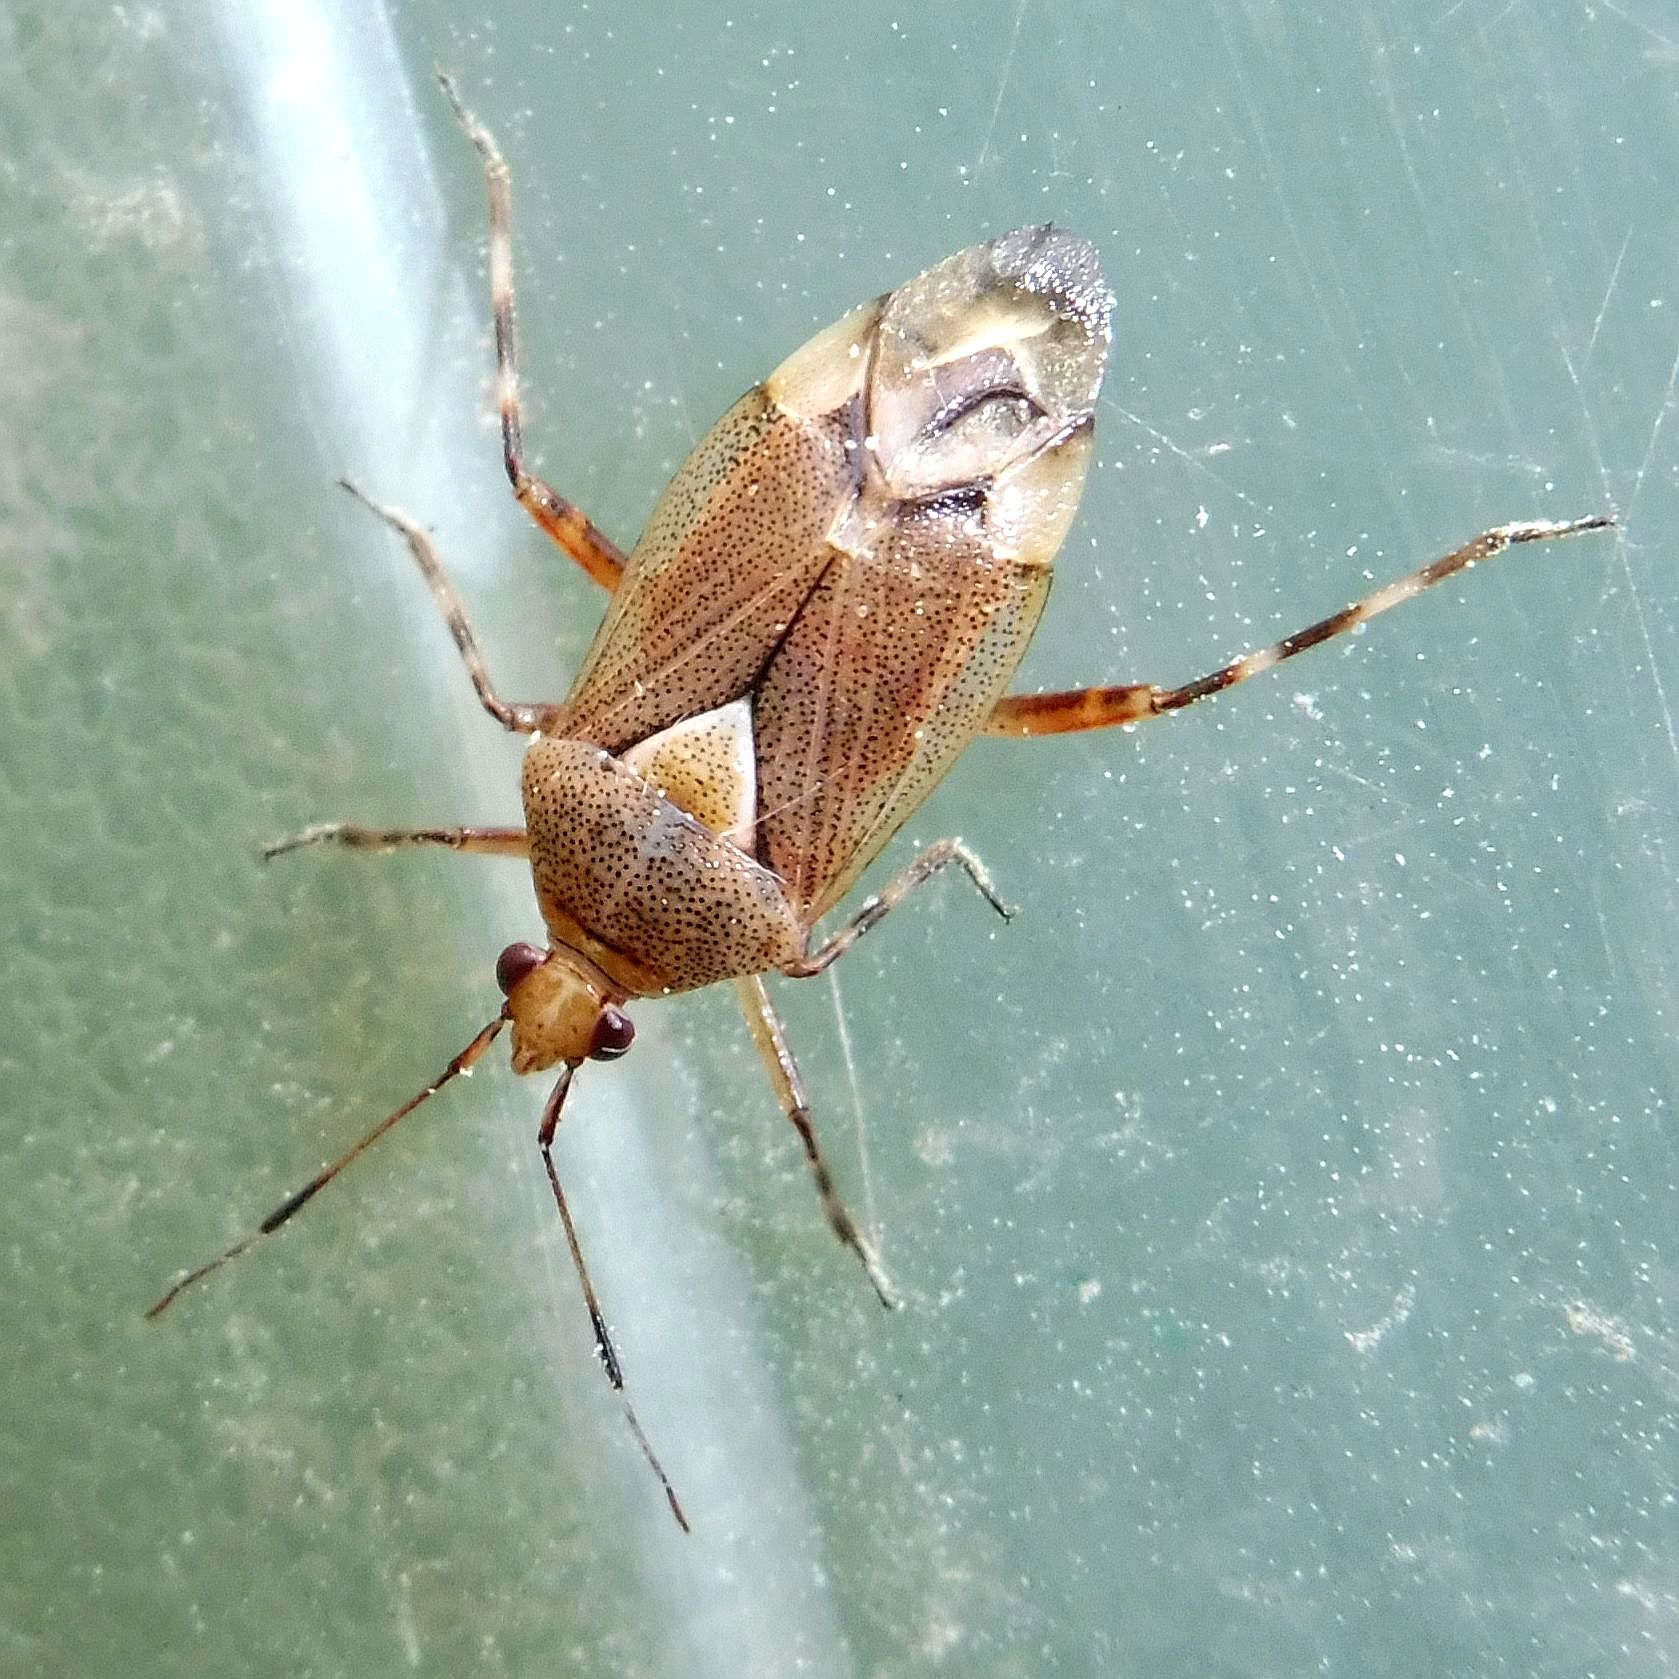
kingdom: Animalia
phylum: Arthropoda
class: Insecta
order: Hemiptera
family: Miridae
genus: Deraeocoris
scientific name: Deraeocoris flavilinea
